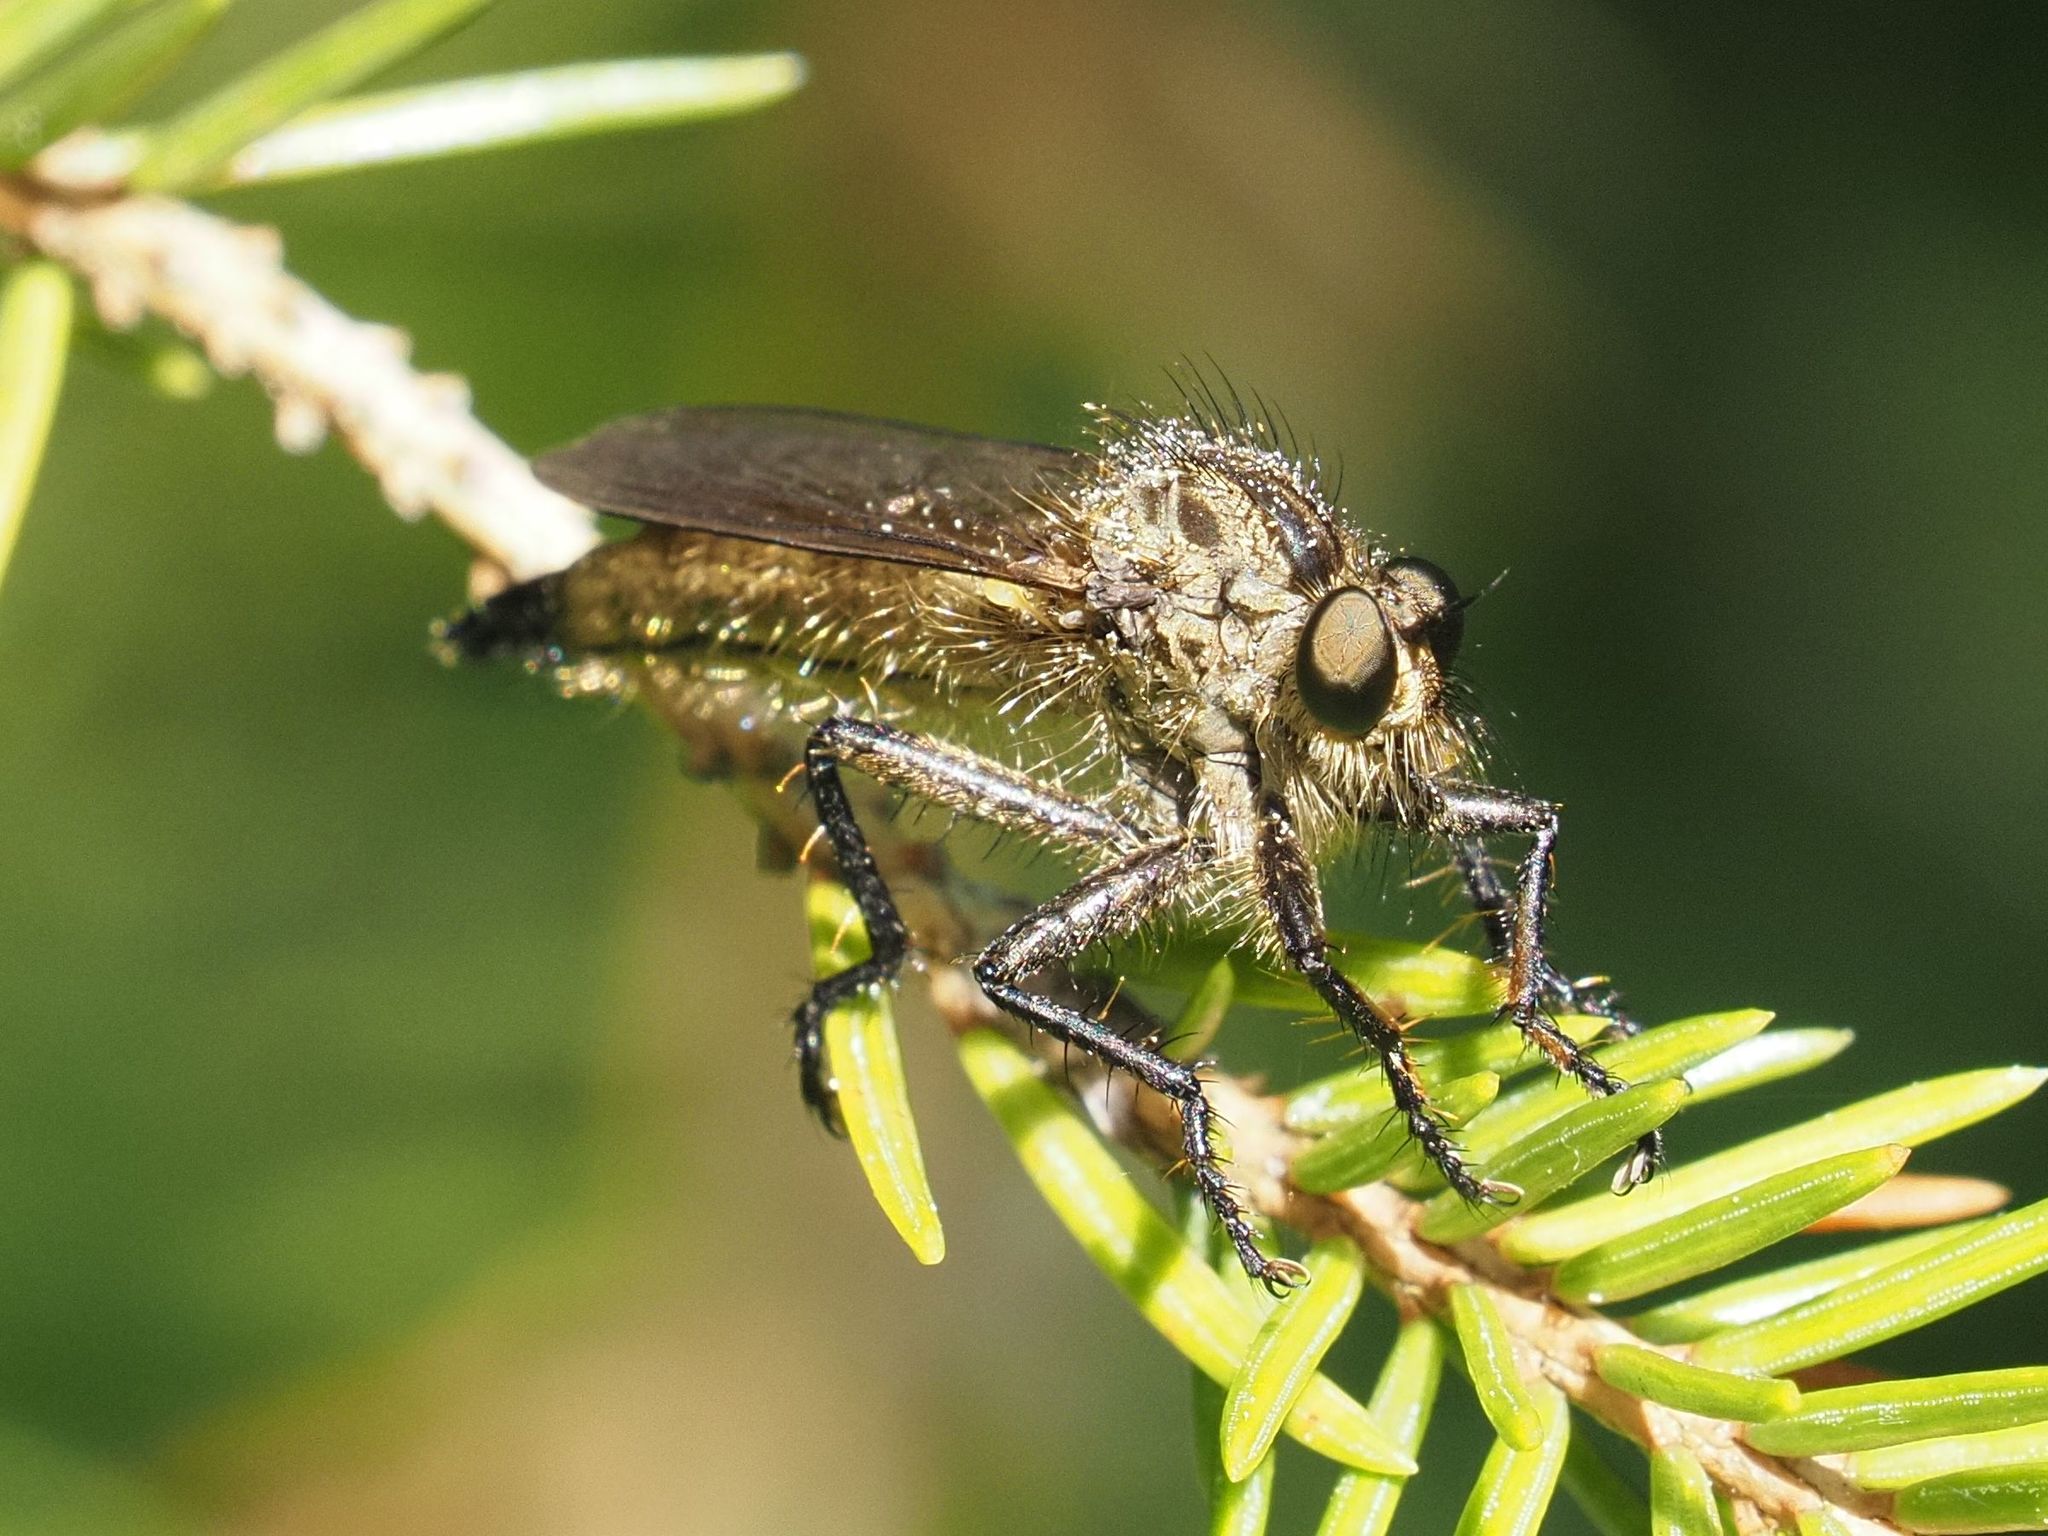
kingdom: Animalia
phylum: Arthropoda
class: Insecta
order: Diptera
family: Asilidae
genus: Didysmachus
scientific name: Didysmachus picipes
